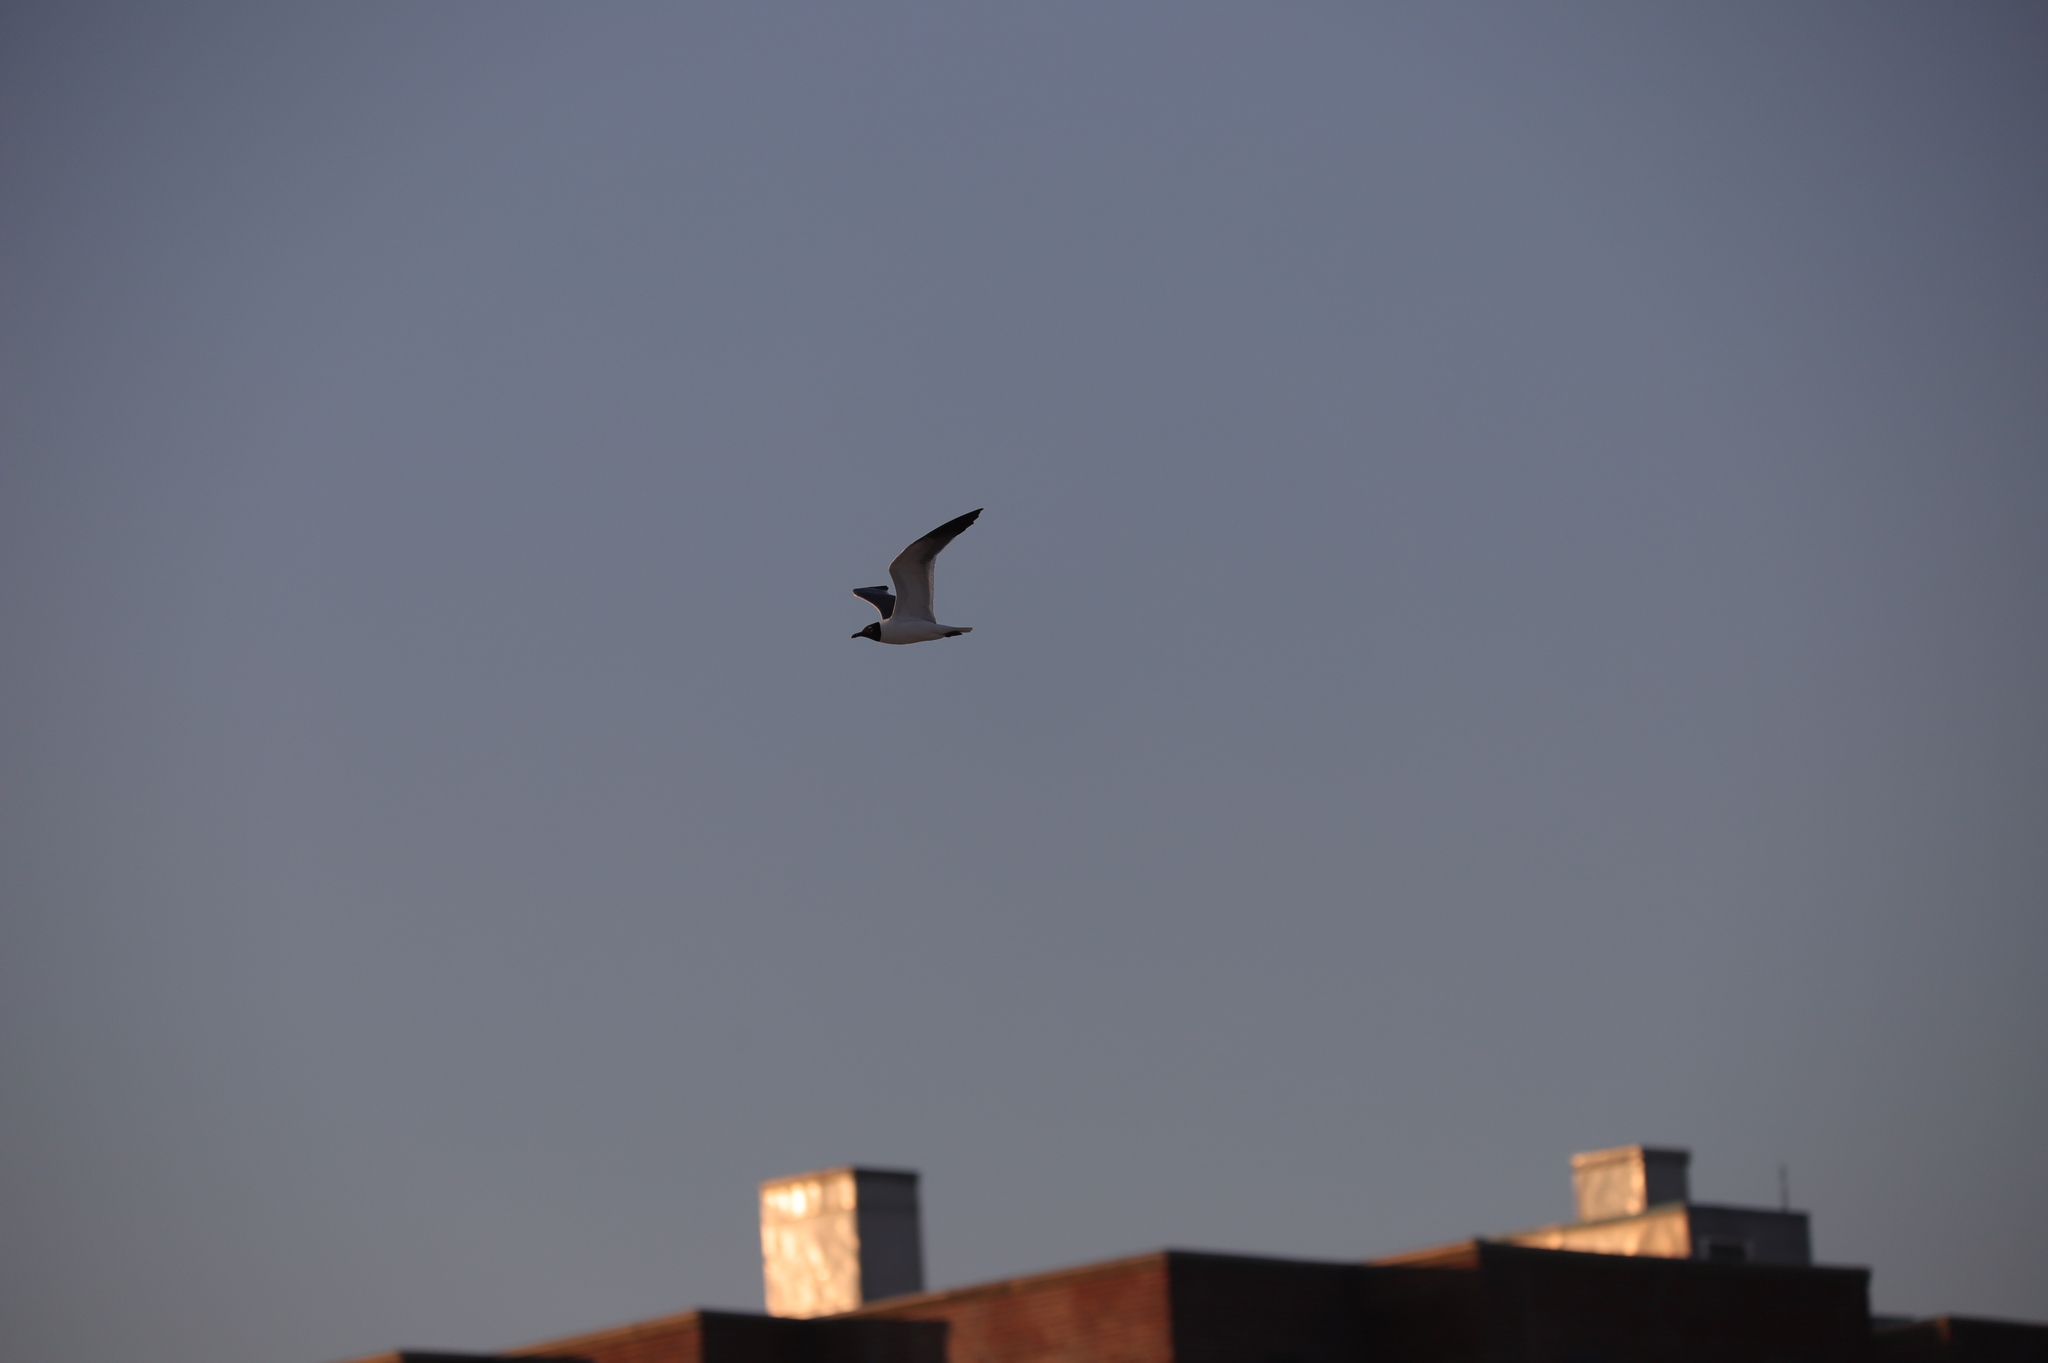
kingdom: Animalia
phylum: Chordata
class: Aves
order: Charadriiformes
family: Laridae
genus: Leucophaeus
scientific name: Leucophaeus atricilla
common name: Laughing gull
